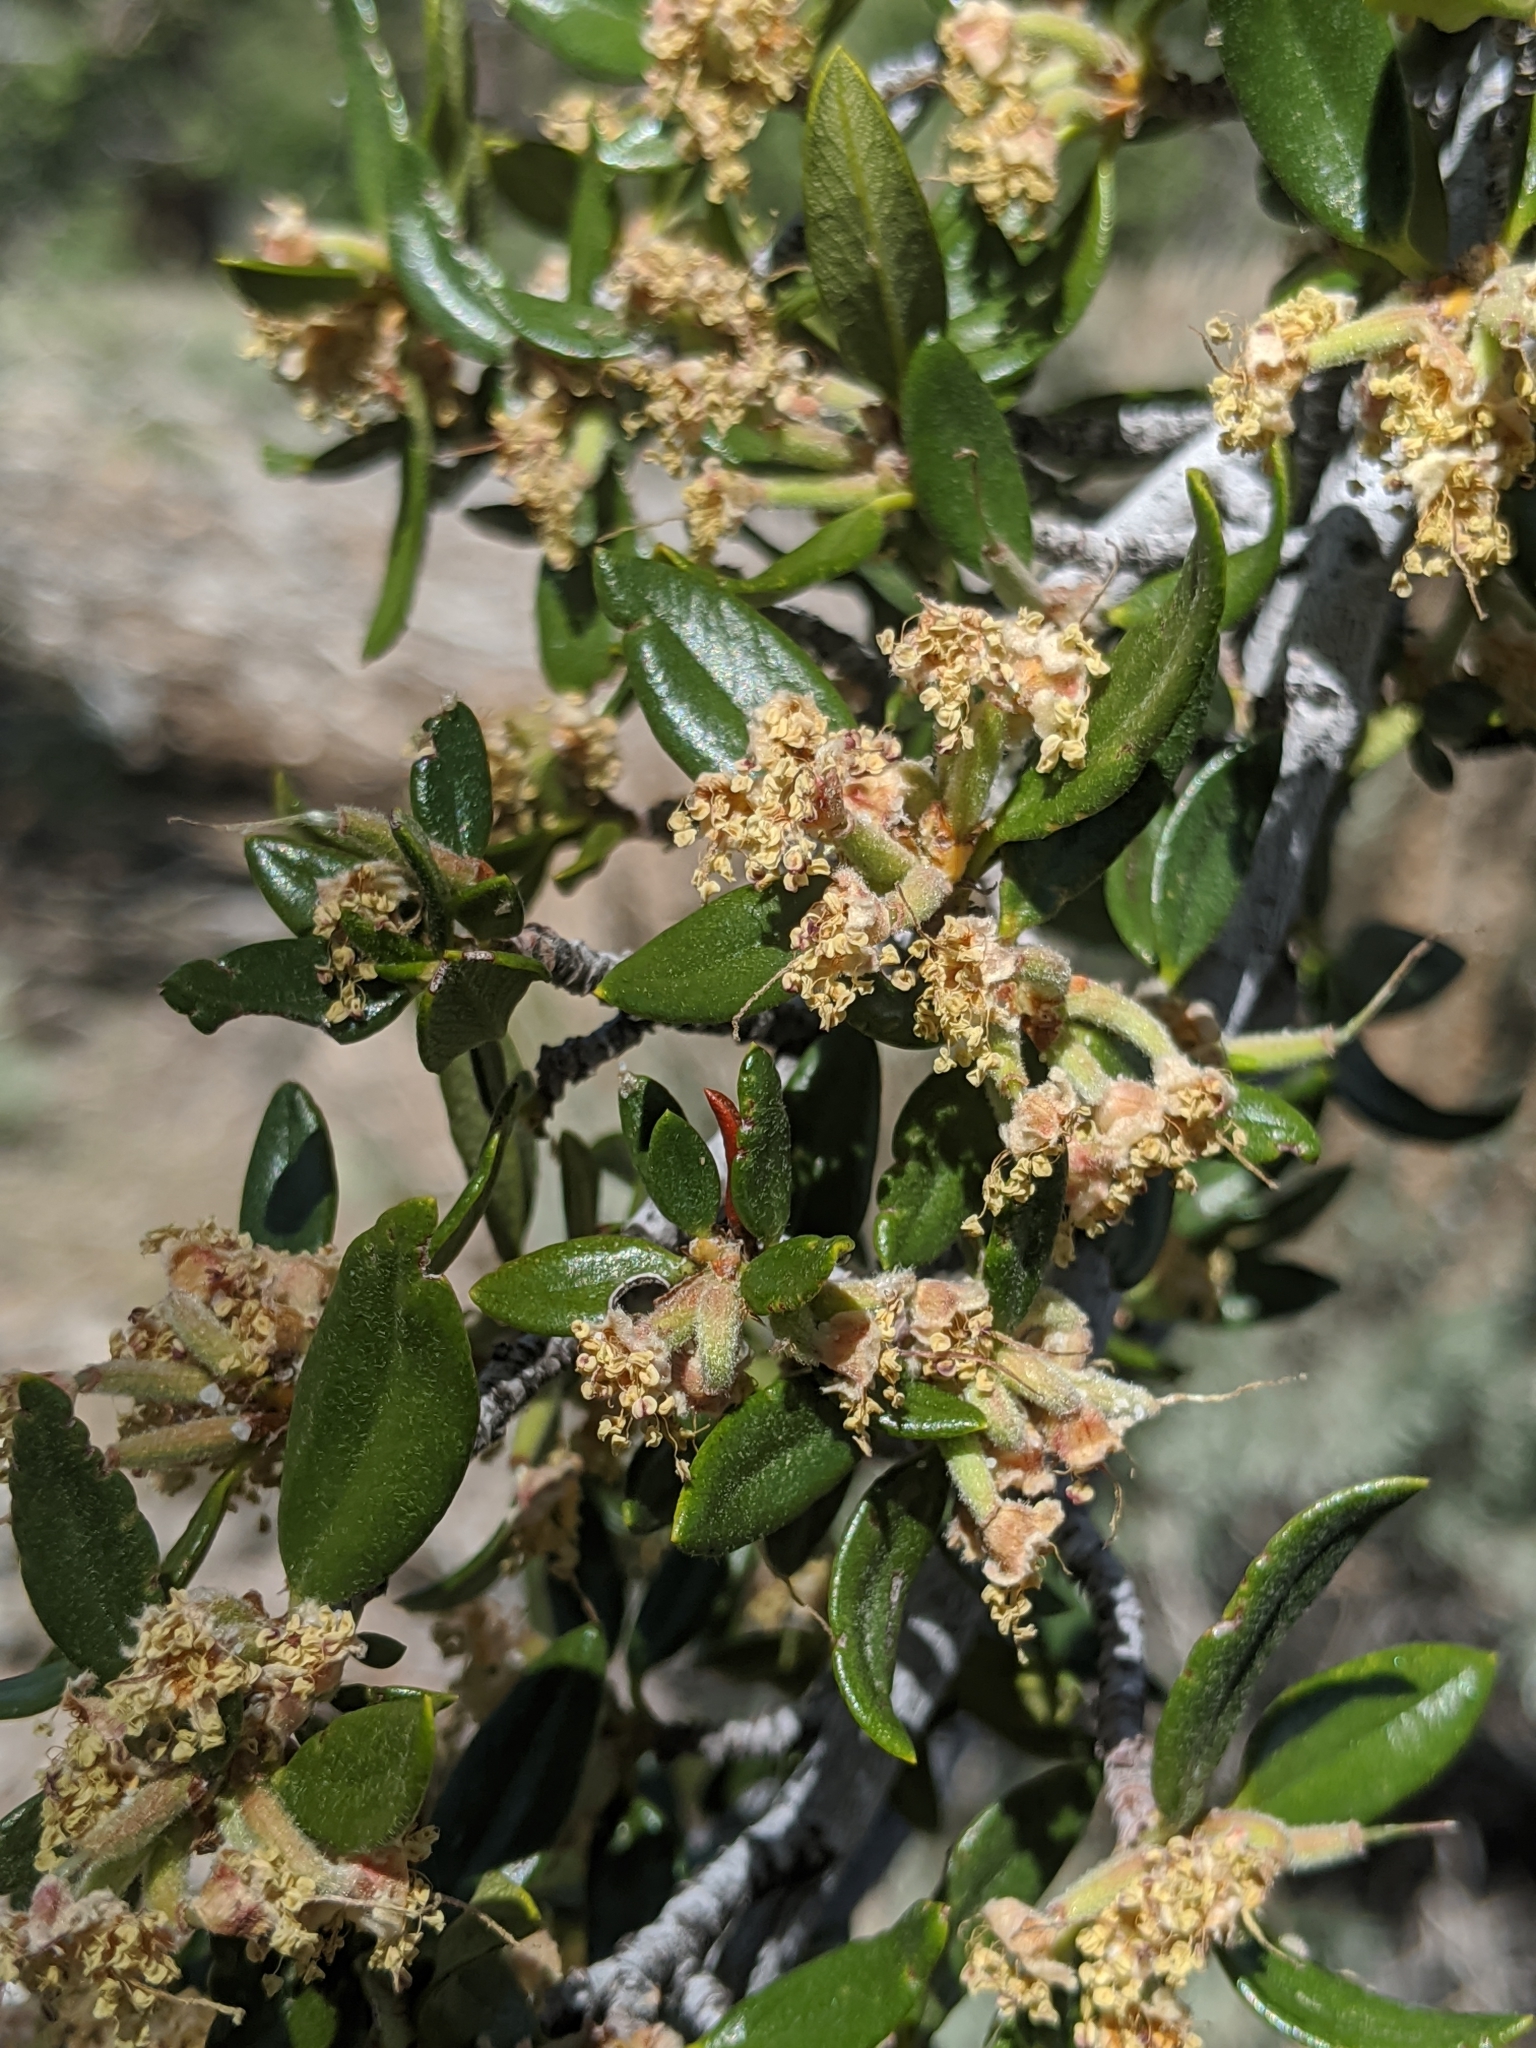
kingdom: Plantae
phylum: Tracheophyta
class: Magnoliopsida
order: Rosales
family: Rosaceae
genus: Cercocarpus
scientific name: Cercocarpus ledifolius
